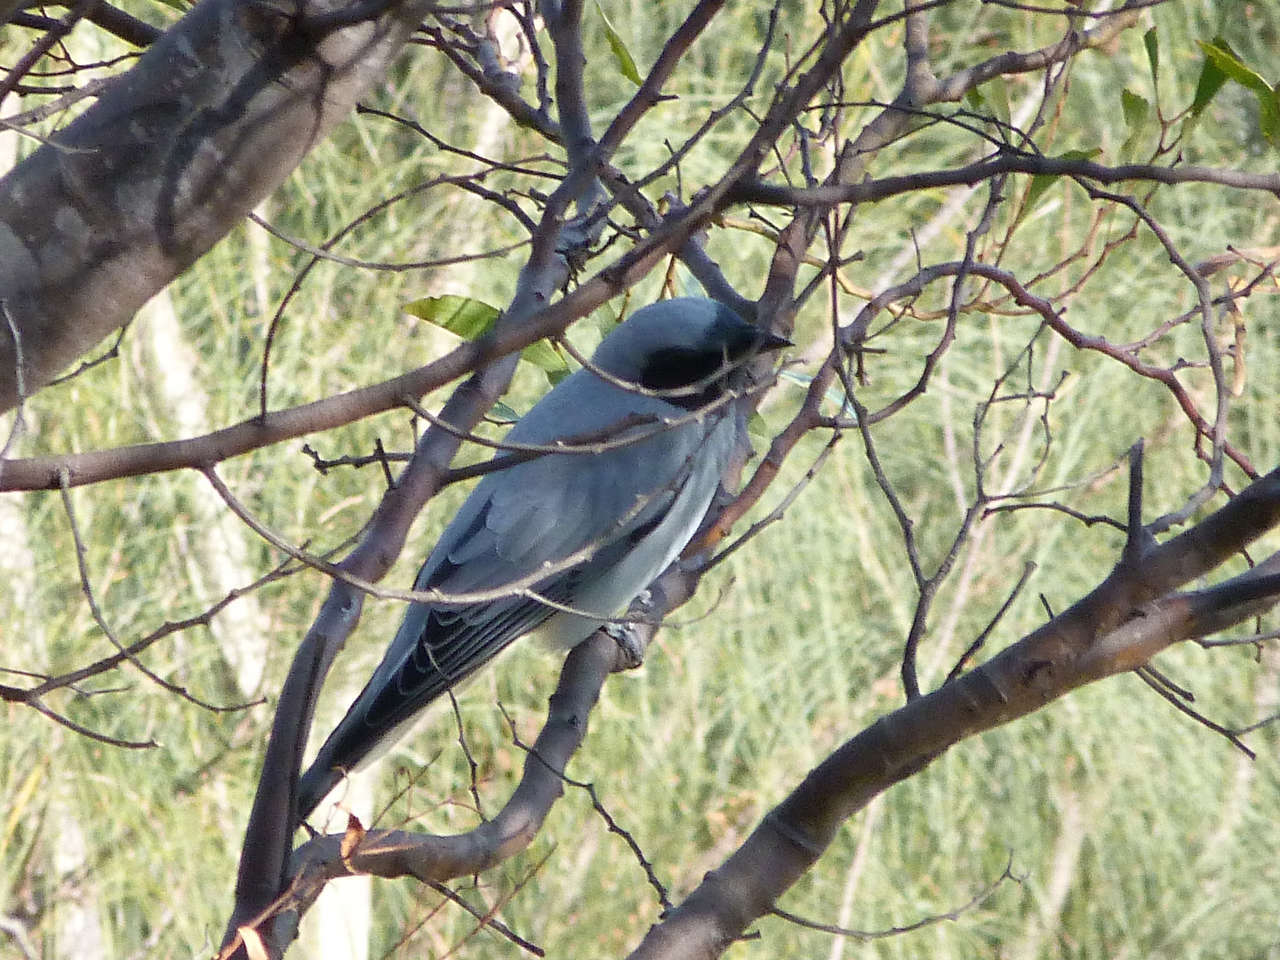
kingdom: Animalia
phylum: Chordata
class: Aves
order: Passeriformes
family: Campephagidae
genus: Coracina
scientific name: Coracina novaehollandiae
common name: Black-faced cuckooshrike
